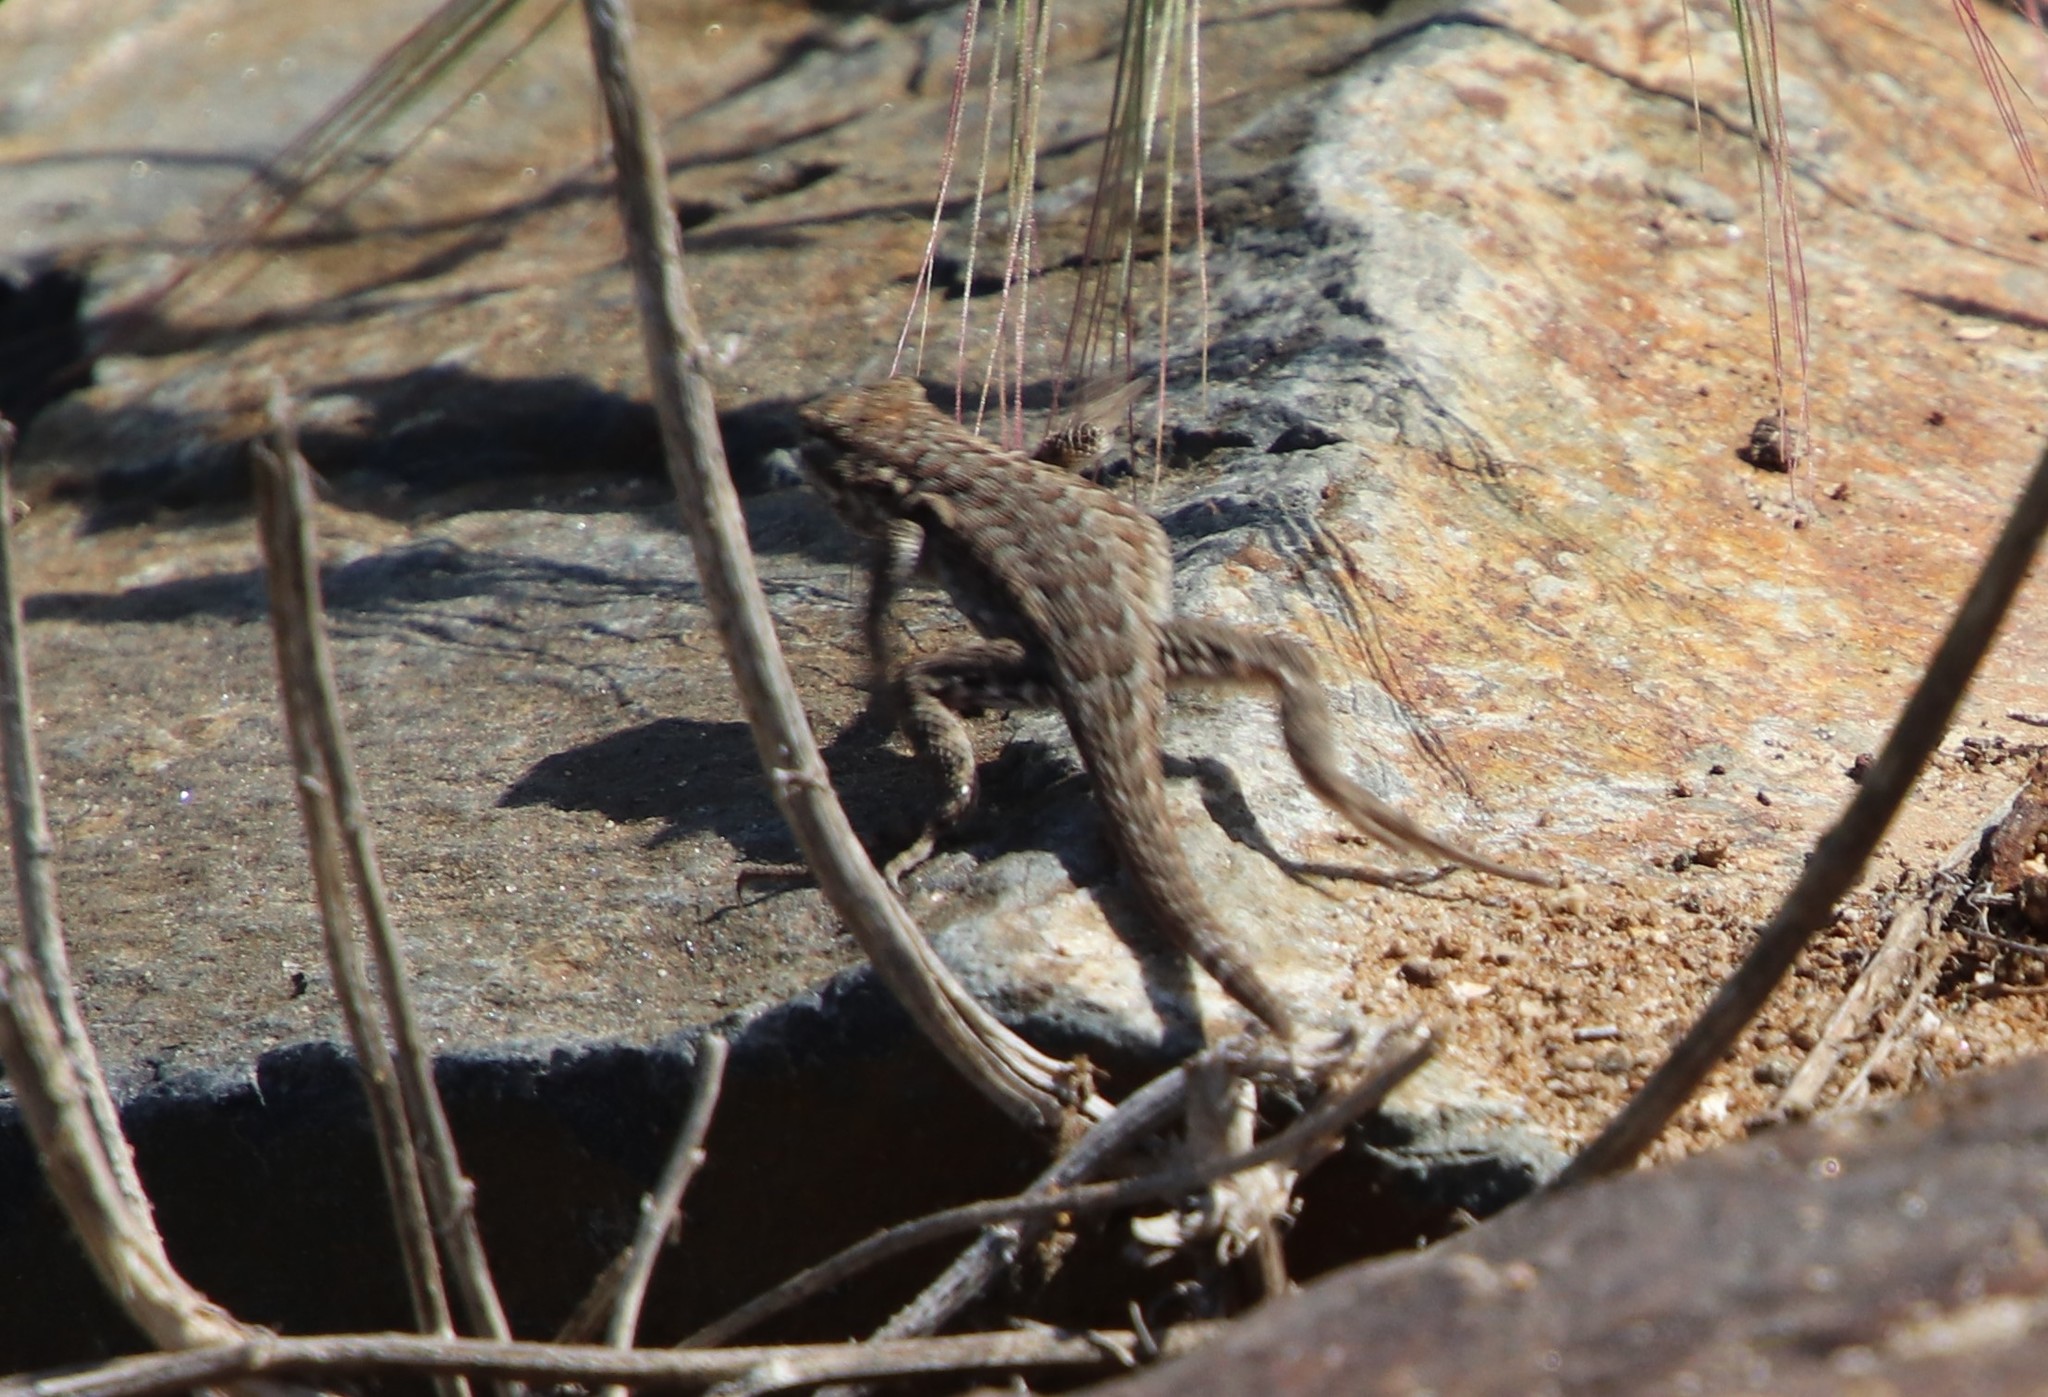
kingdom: Animalia
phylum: Chordata
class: Squamata
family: Phrynosomatidae
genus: Uta
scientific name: Uta stansburiana
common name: Side-blotched lizard
